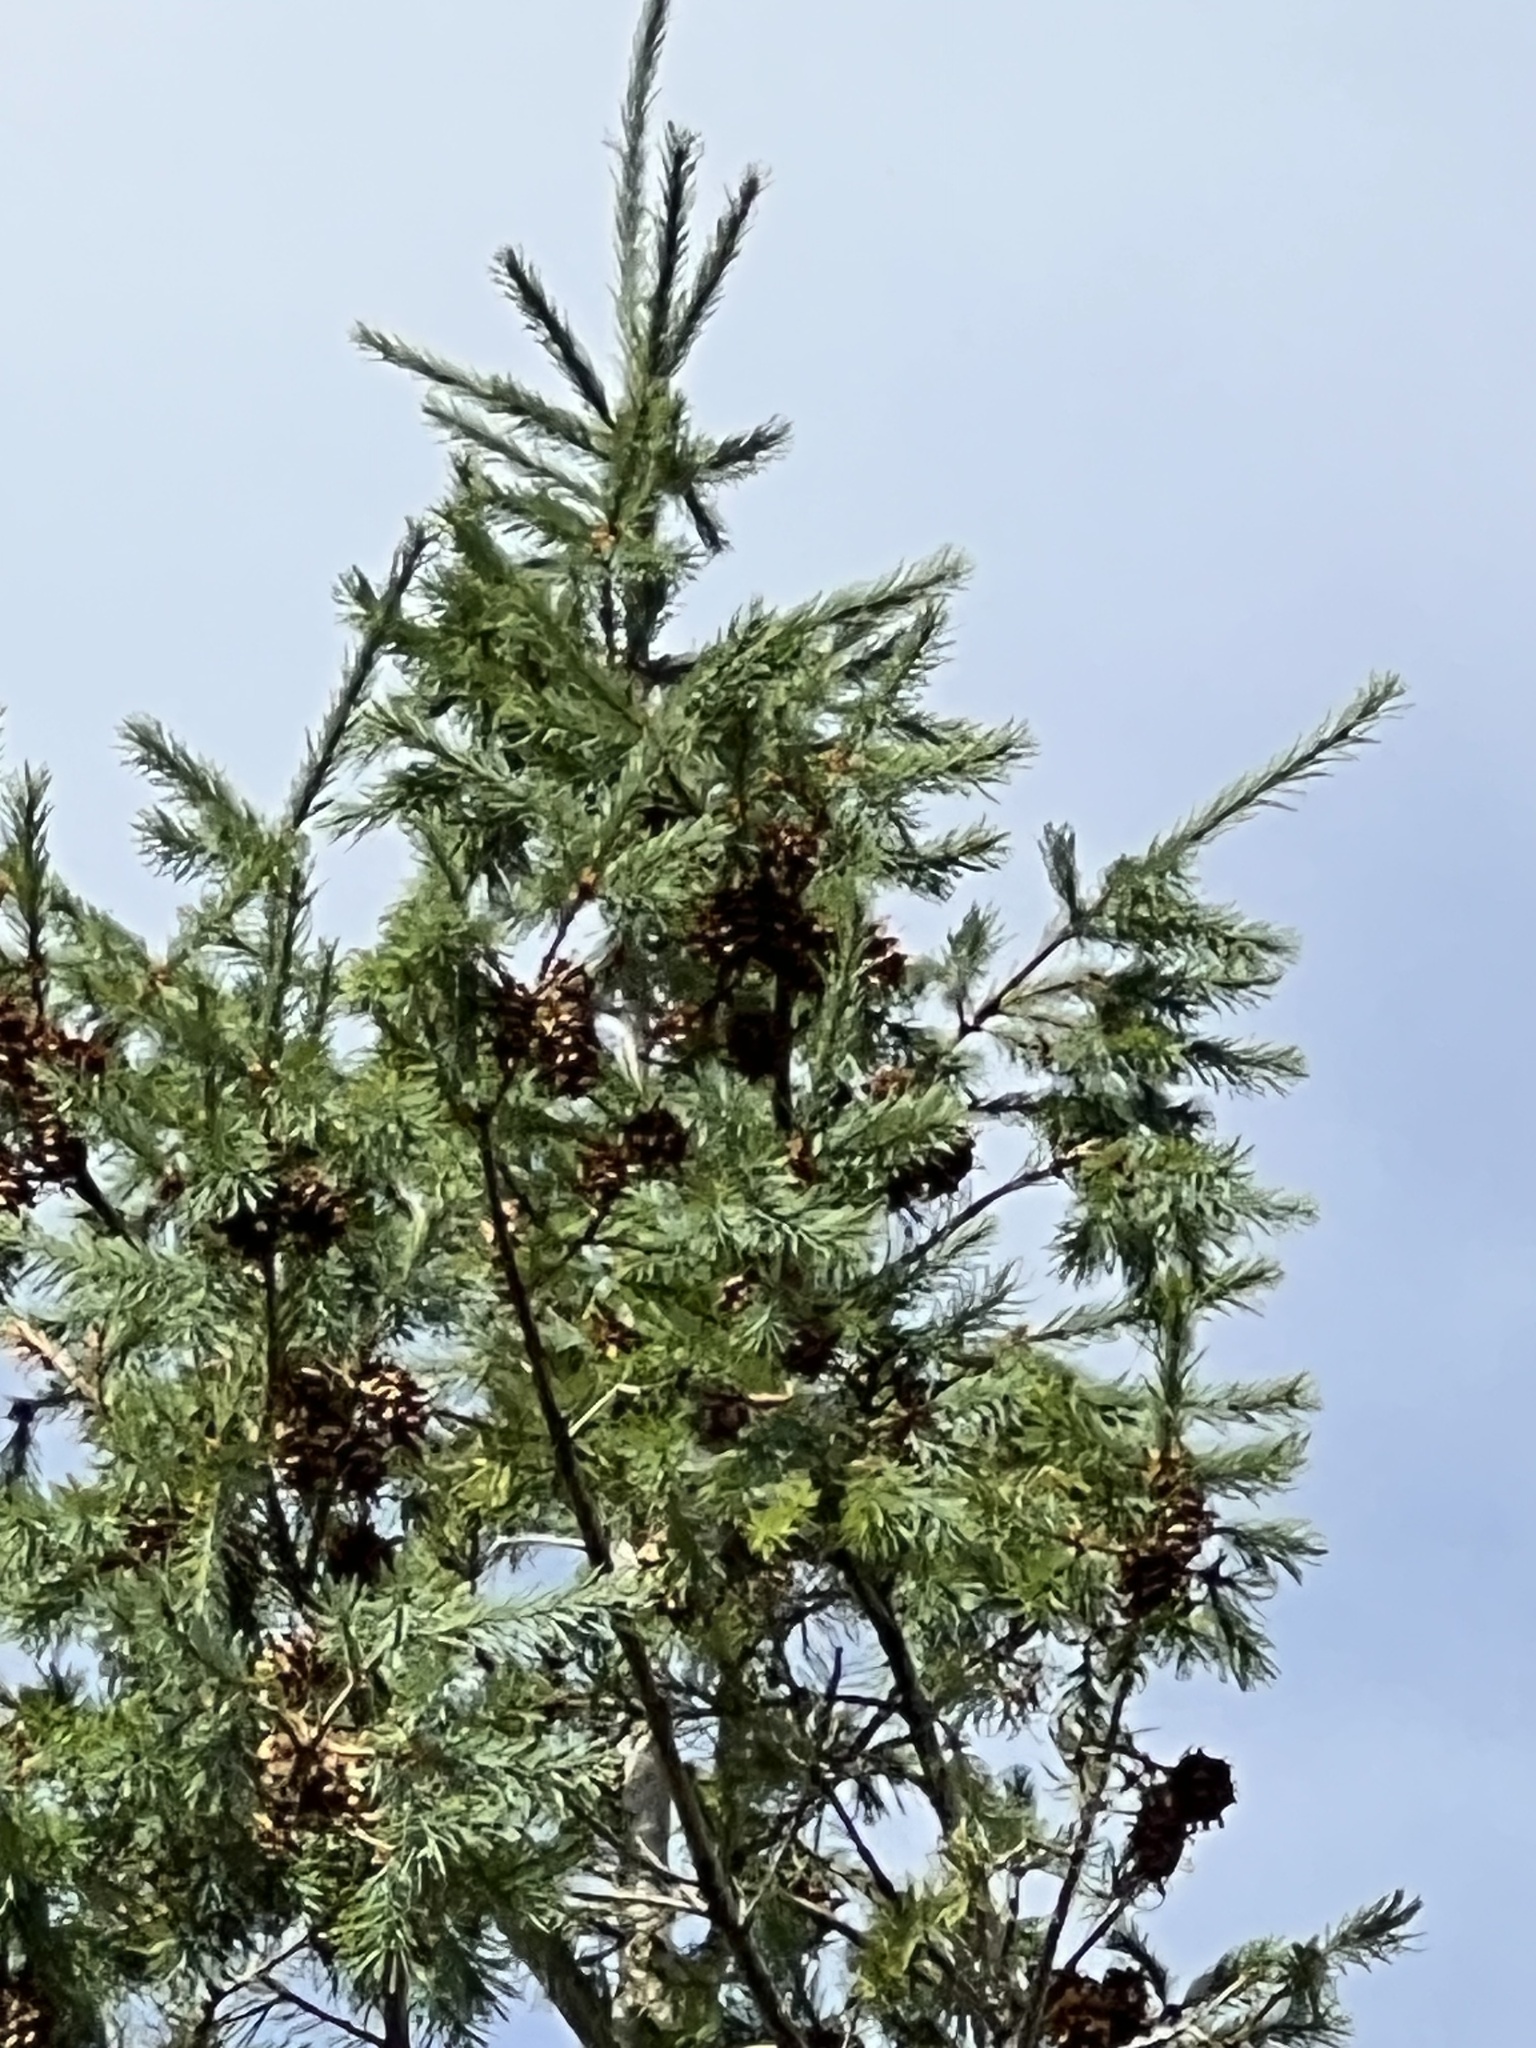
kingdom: Plantae
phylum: Tracheophyta
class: Pinopsida
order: Pinales
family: Pinaceae
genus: Pseudotsuga
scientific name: Pseudotsuga menziesii
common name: Douglas fir
